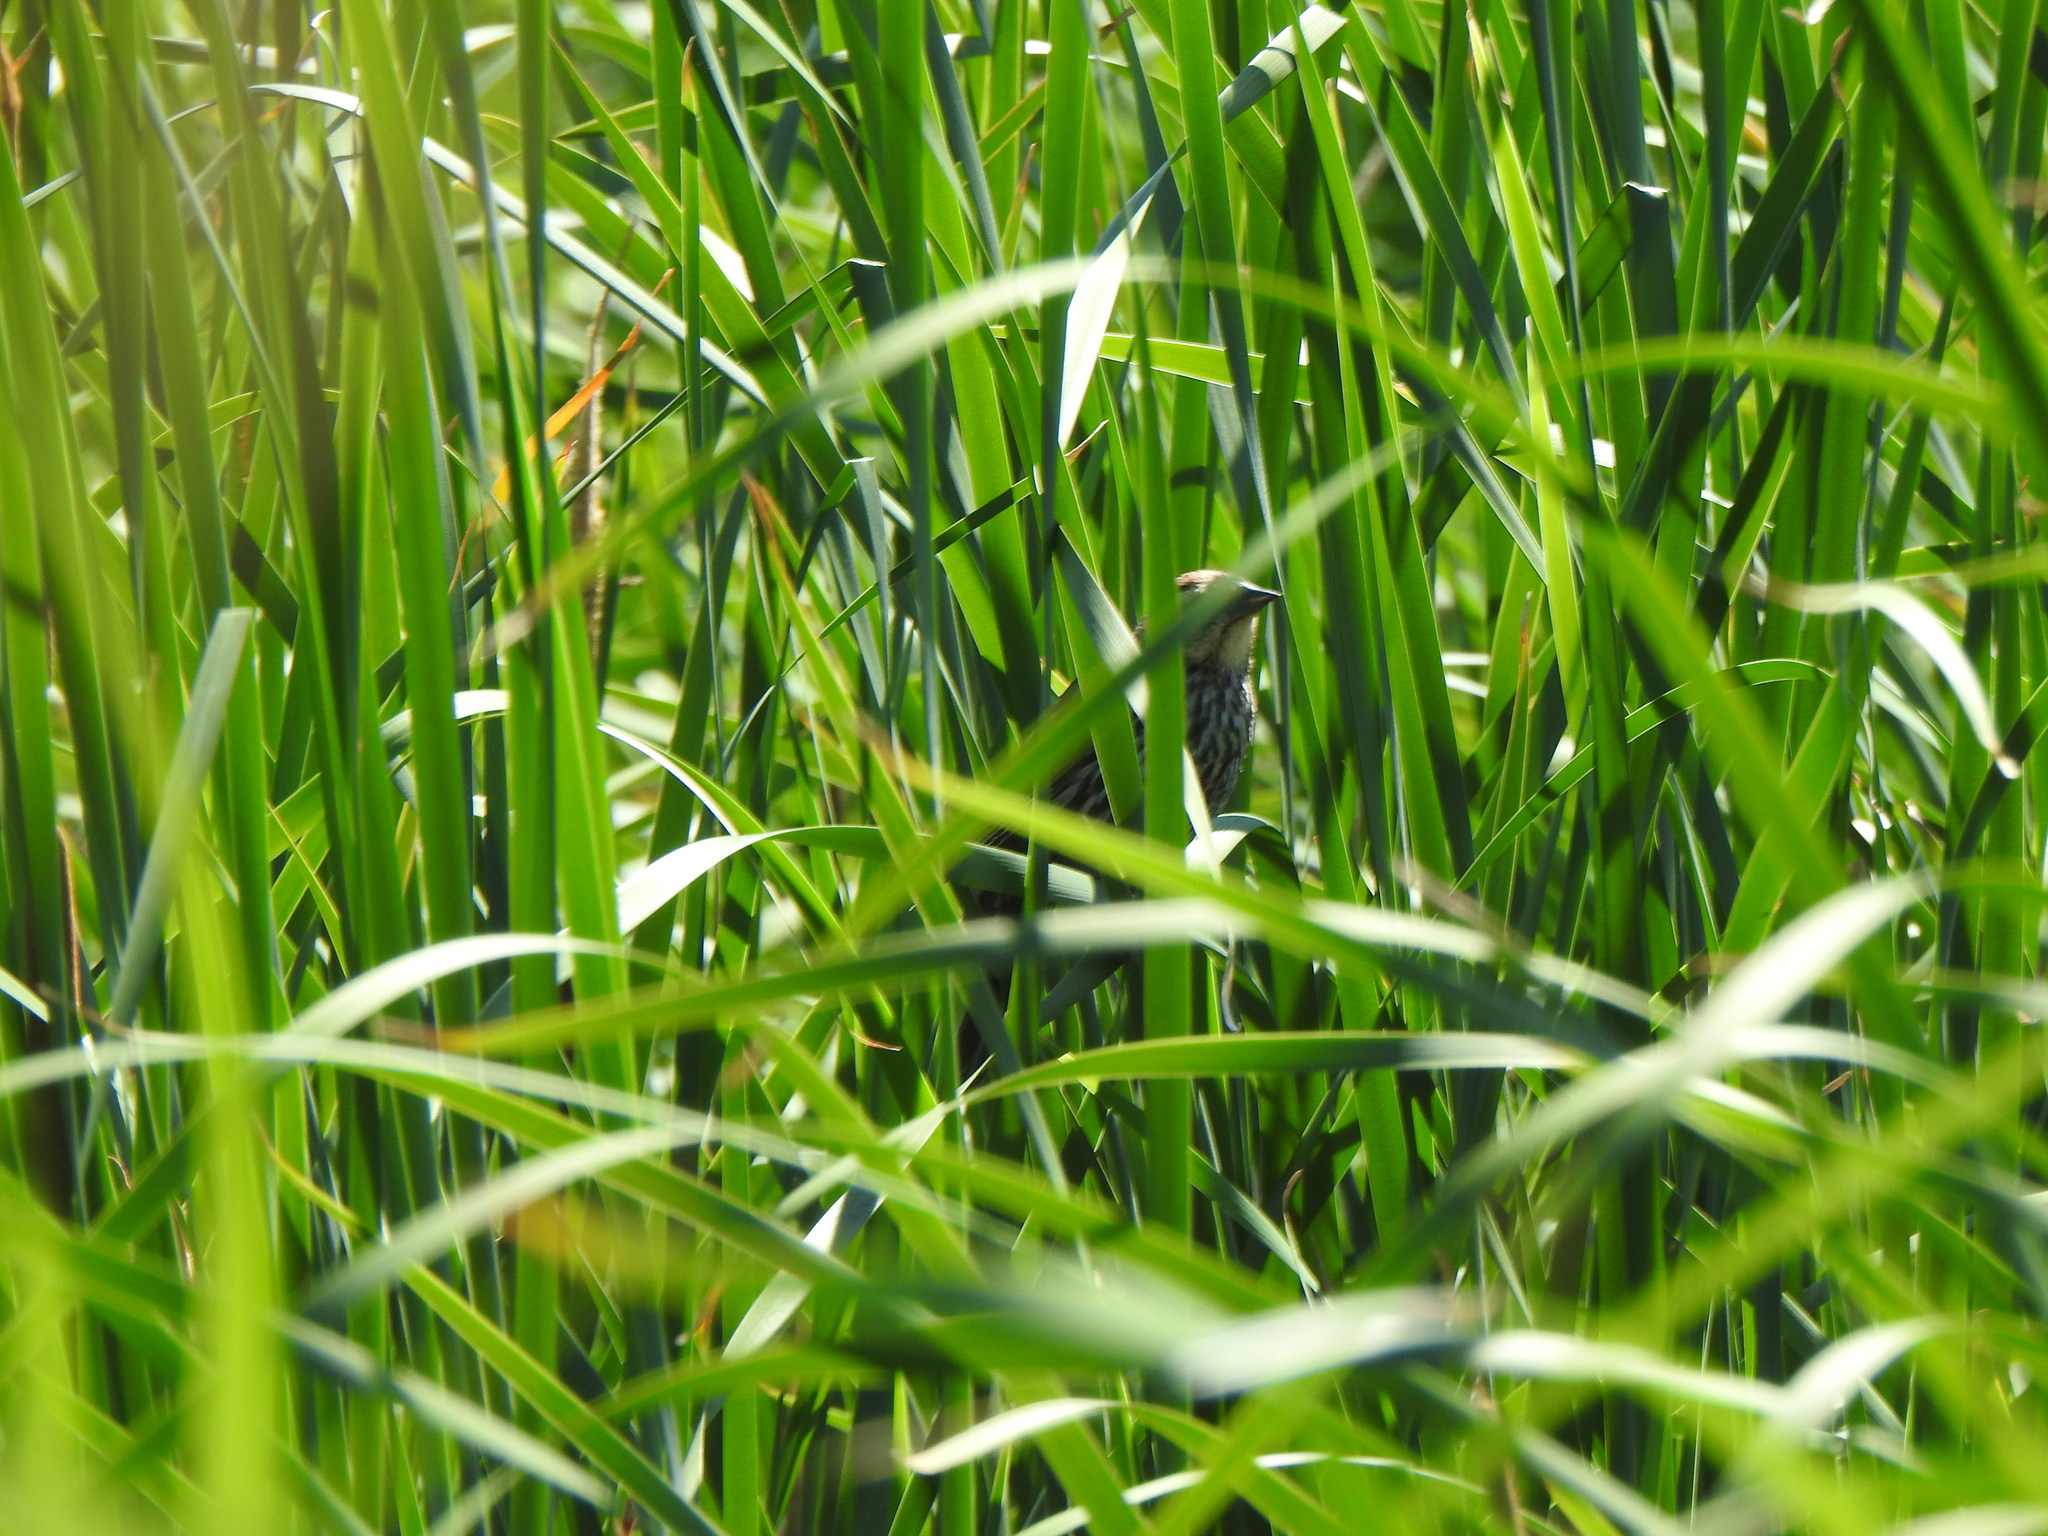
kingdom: Animalia
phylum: Chordata
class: Aves
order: Passeriformes
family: Icteridae
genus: Agelaius
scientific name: Agelaius phoeniceus
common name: Red-winged blackbird
